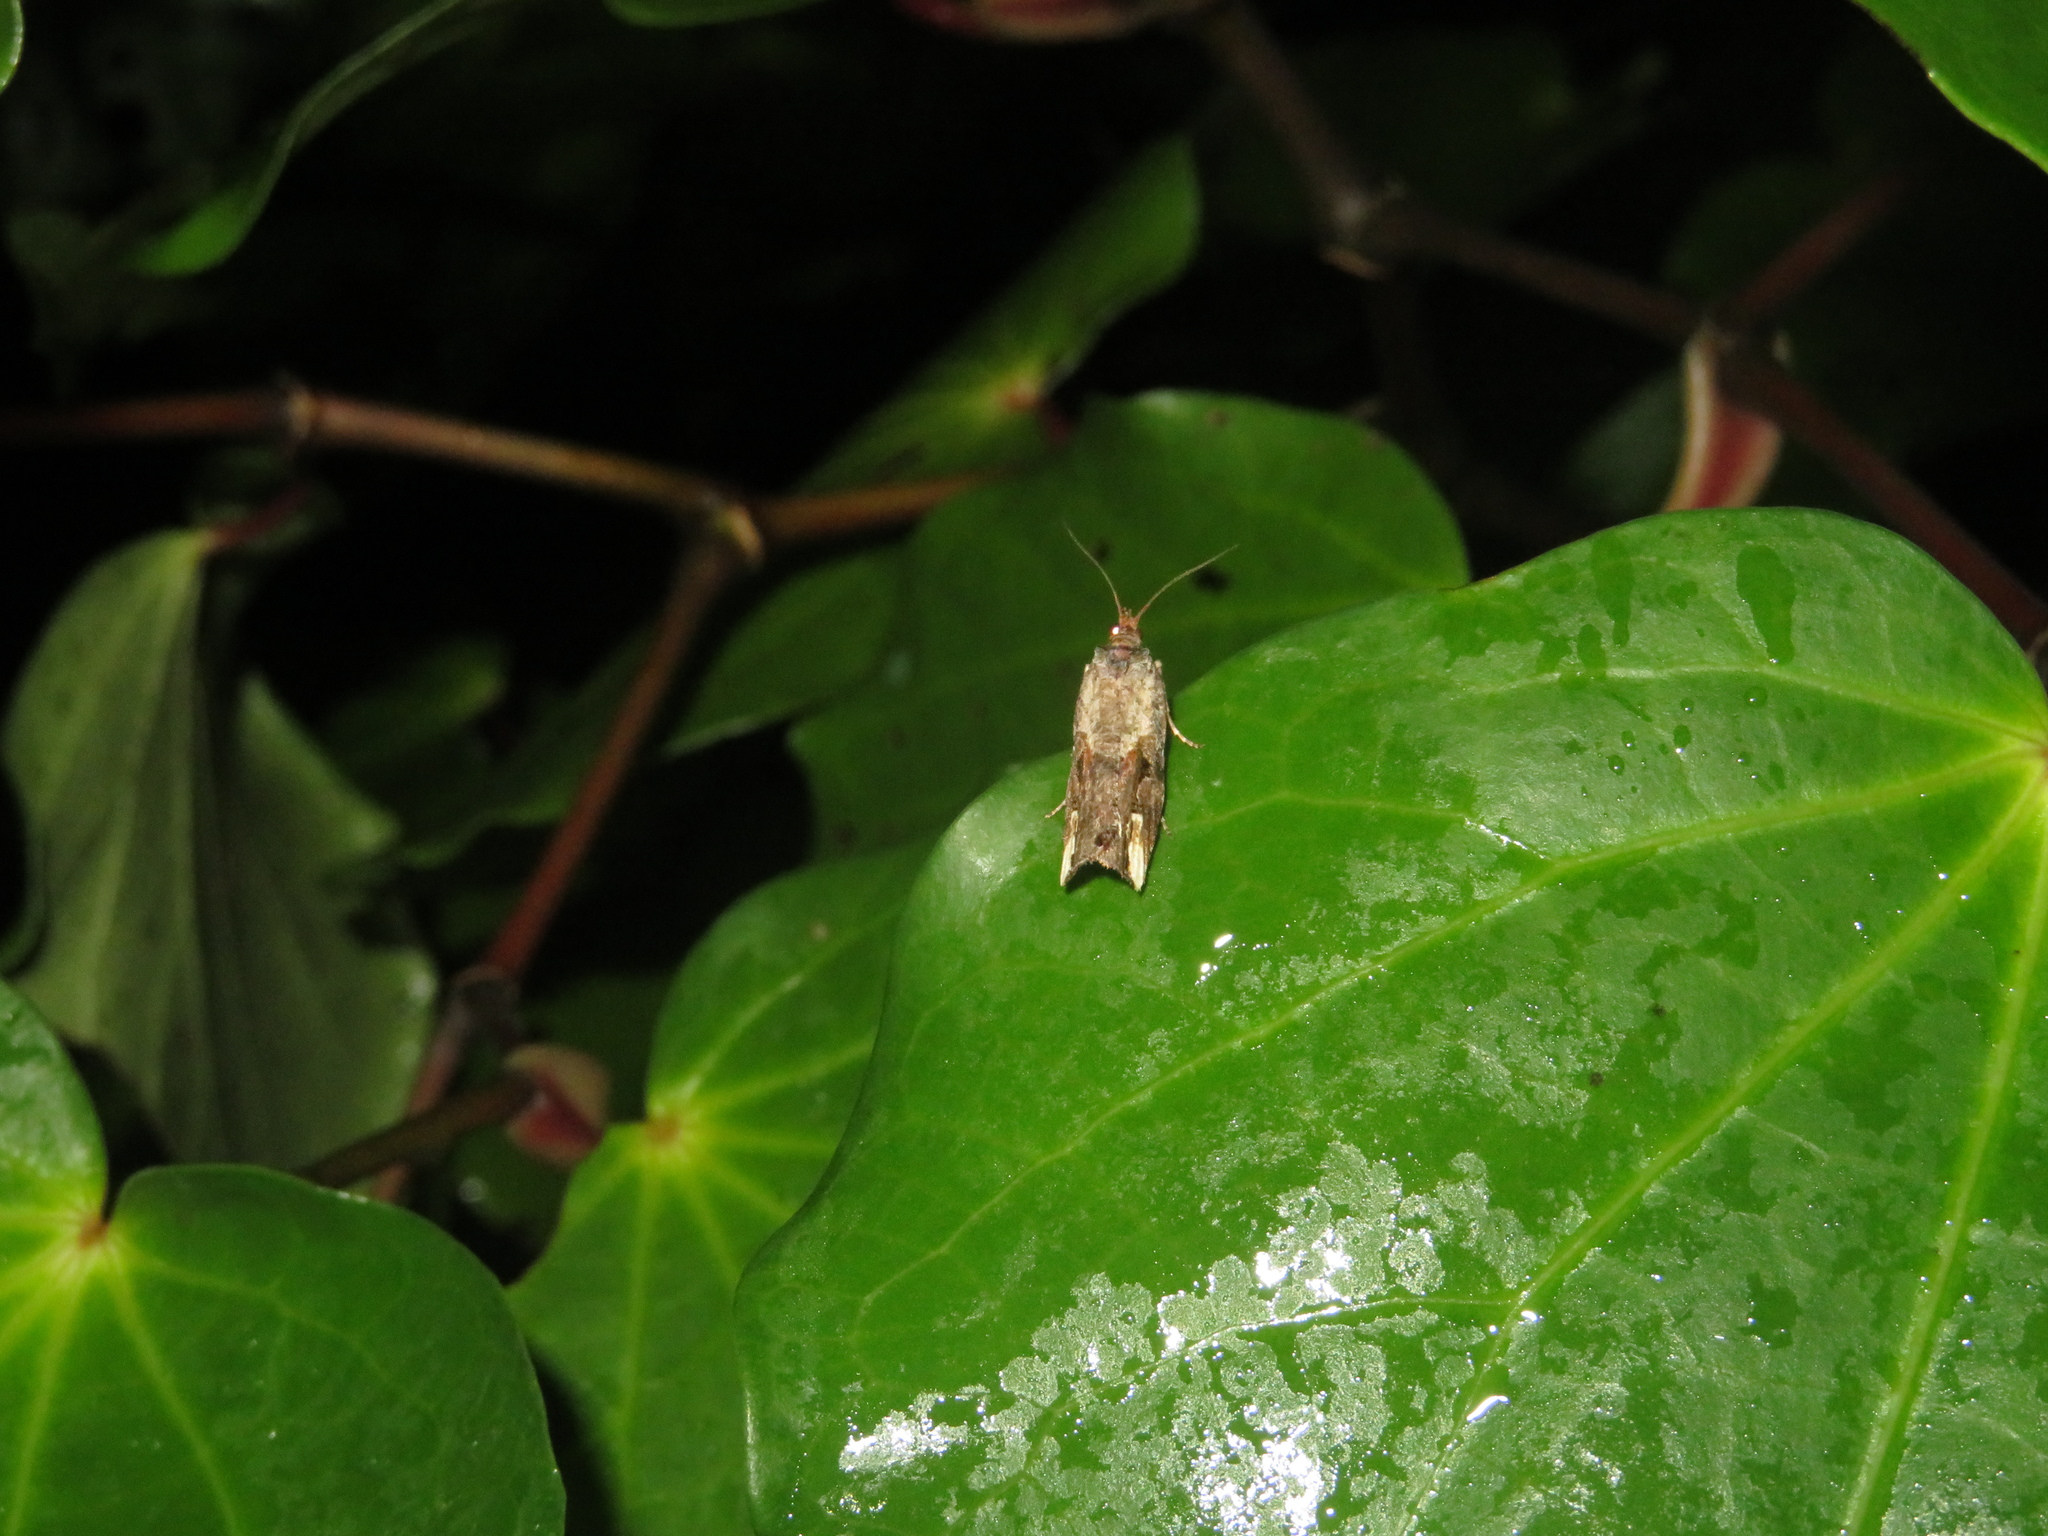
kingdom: Animalia
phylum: Arthropoda
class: Insecta
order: Lepidoptera
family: Tortricidae
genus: Epalxiphora
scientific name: Epalxiphora axenana
